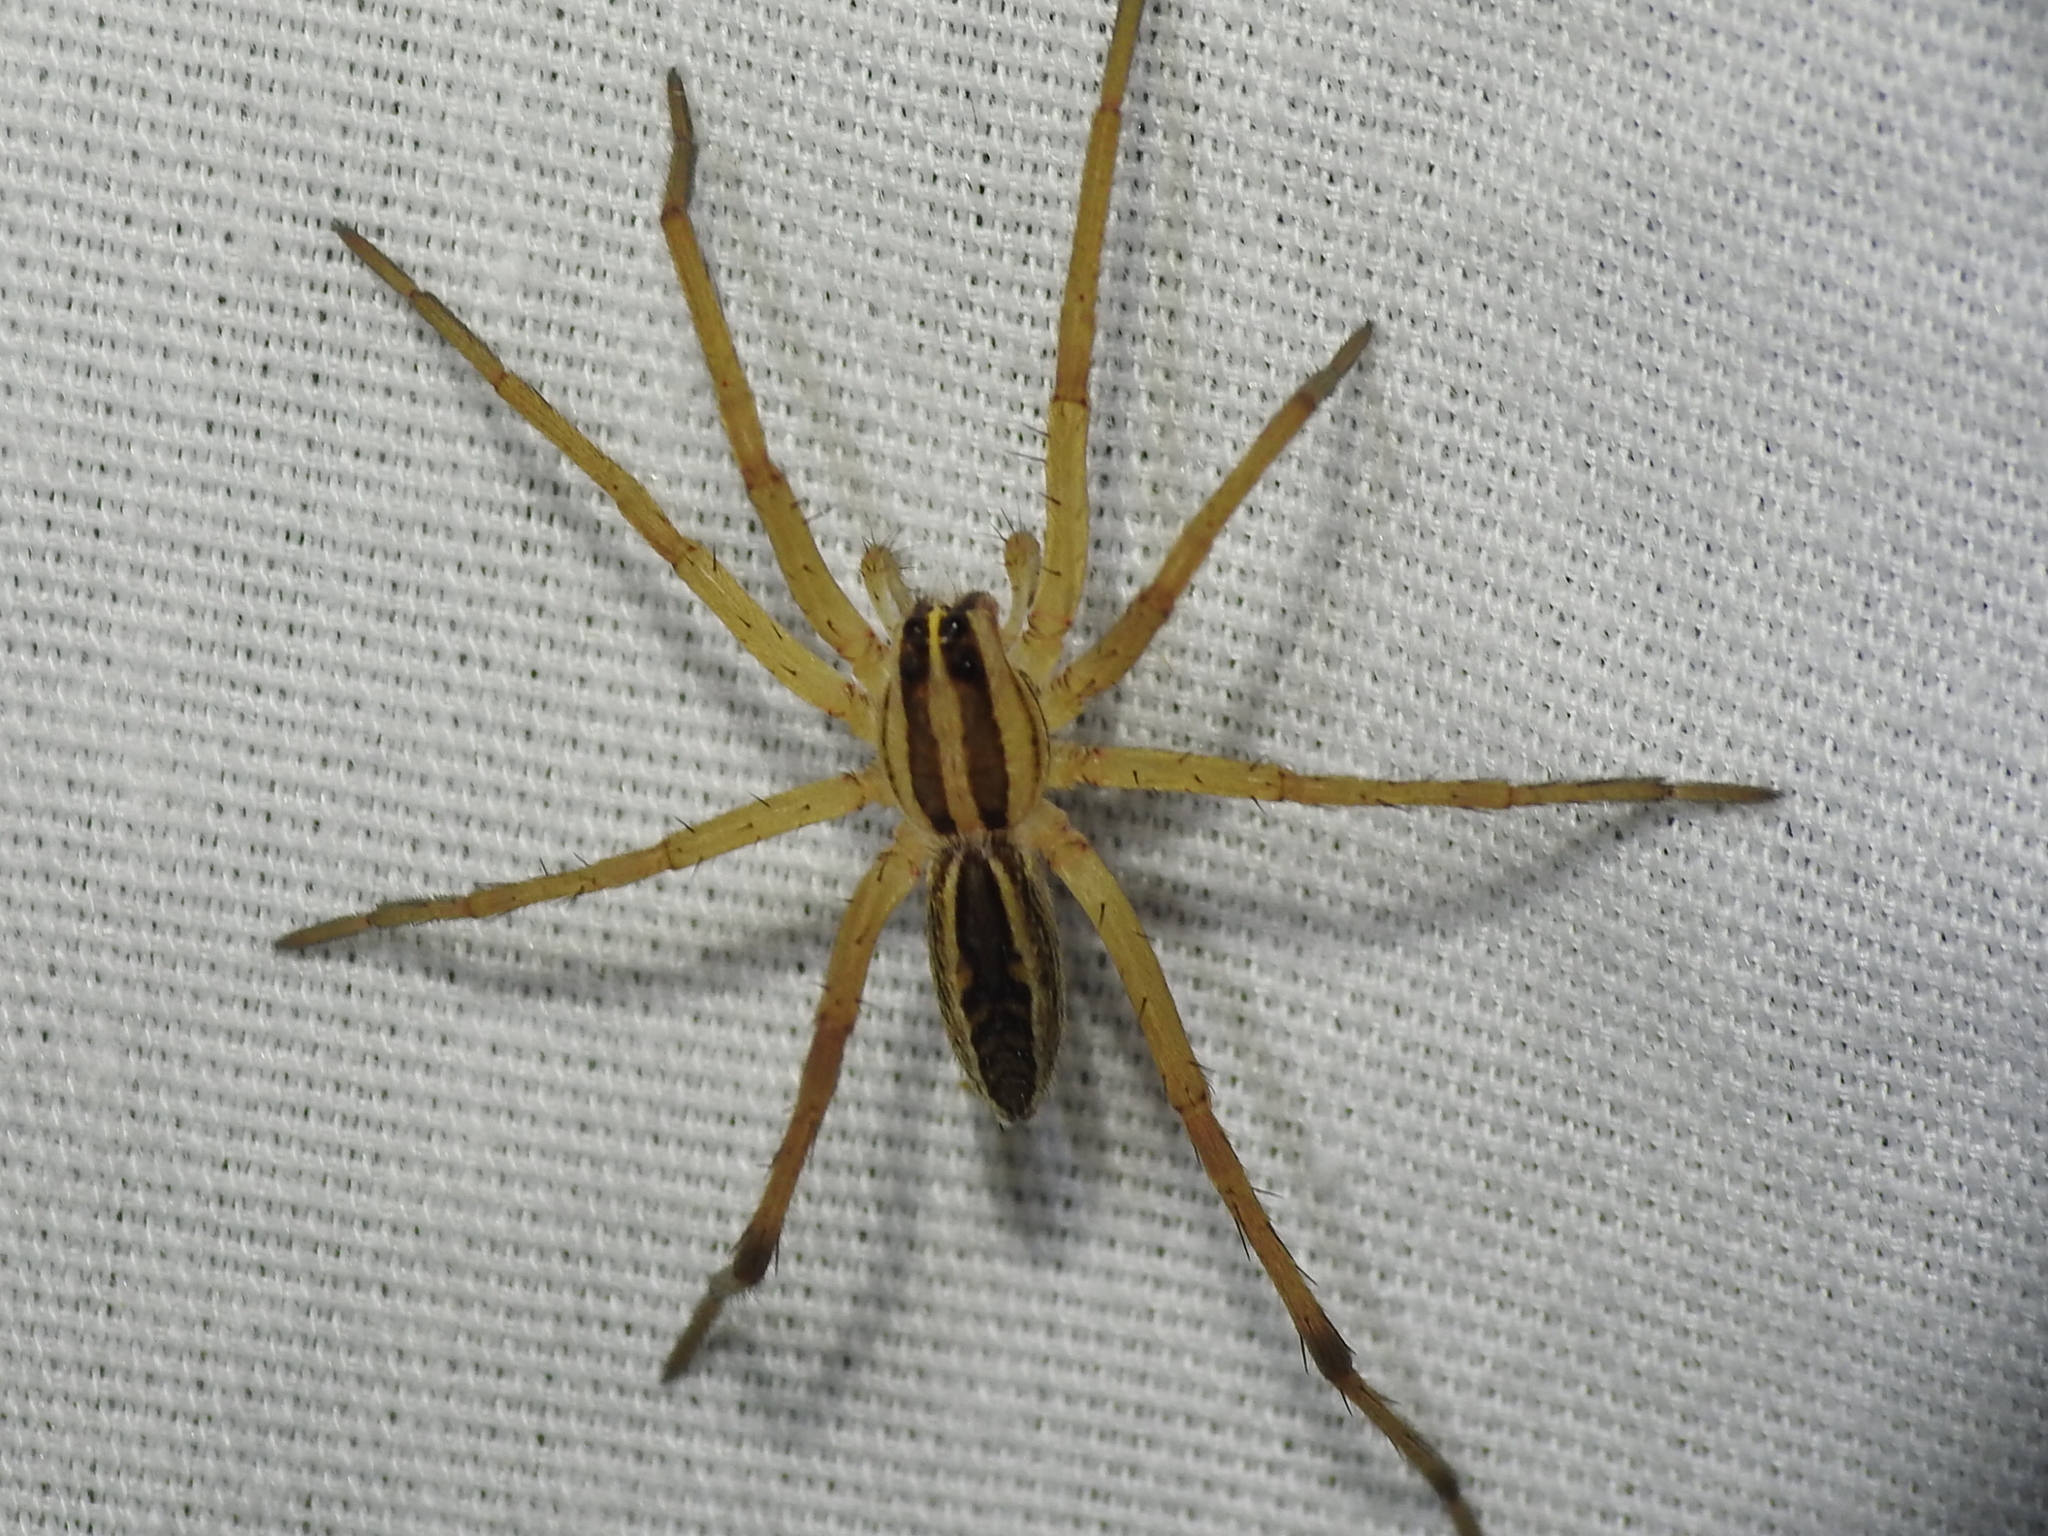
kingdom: Animalia
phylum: Arthropoda
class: Arachnida
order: Araneae
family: Lycosidae
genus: Rabidosa
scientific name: Rabidosa rabida
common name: Rabid wolf spider
